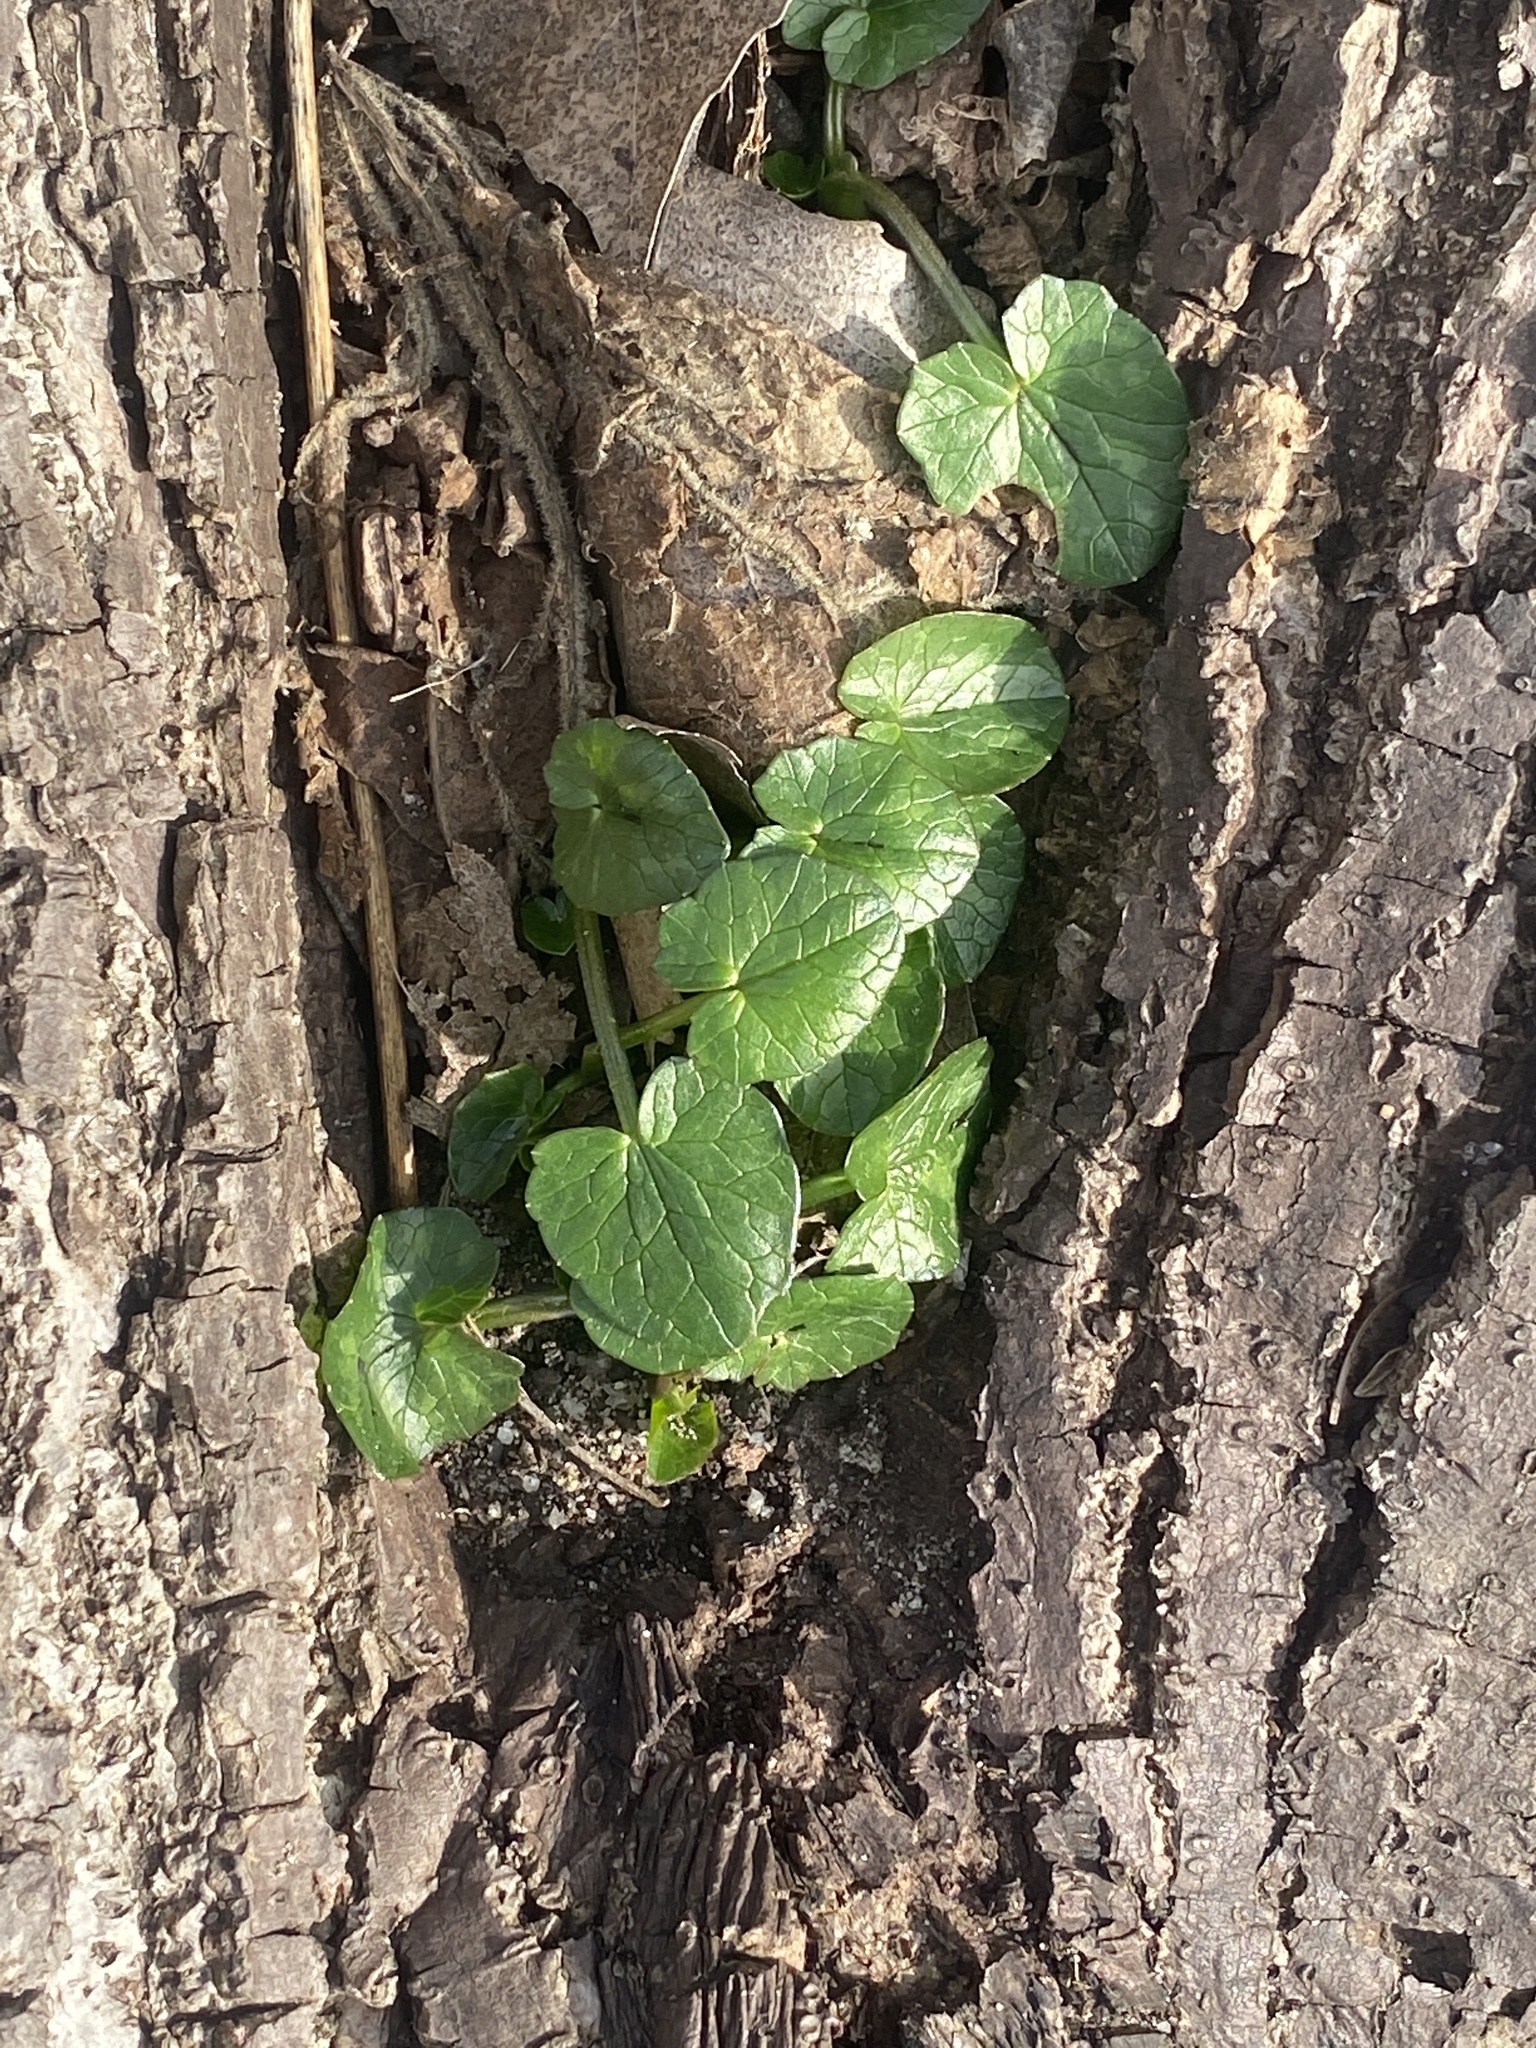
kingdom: Plantae
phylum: Tracheophyta
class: Magnoliopsida
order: Ranunculales
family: Ranunculaceae
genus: Ficaria
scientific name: Ficaria verna
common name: Lesser celandine
